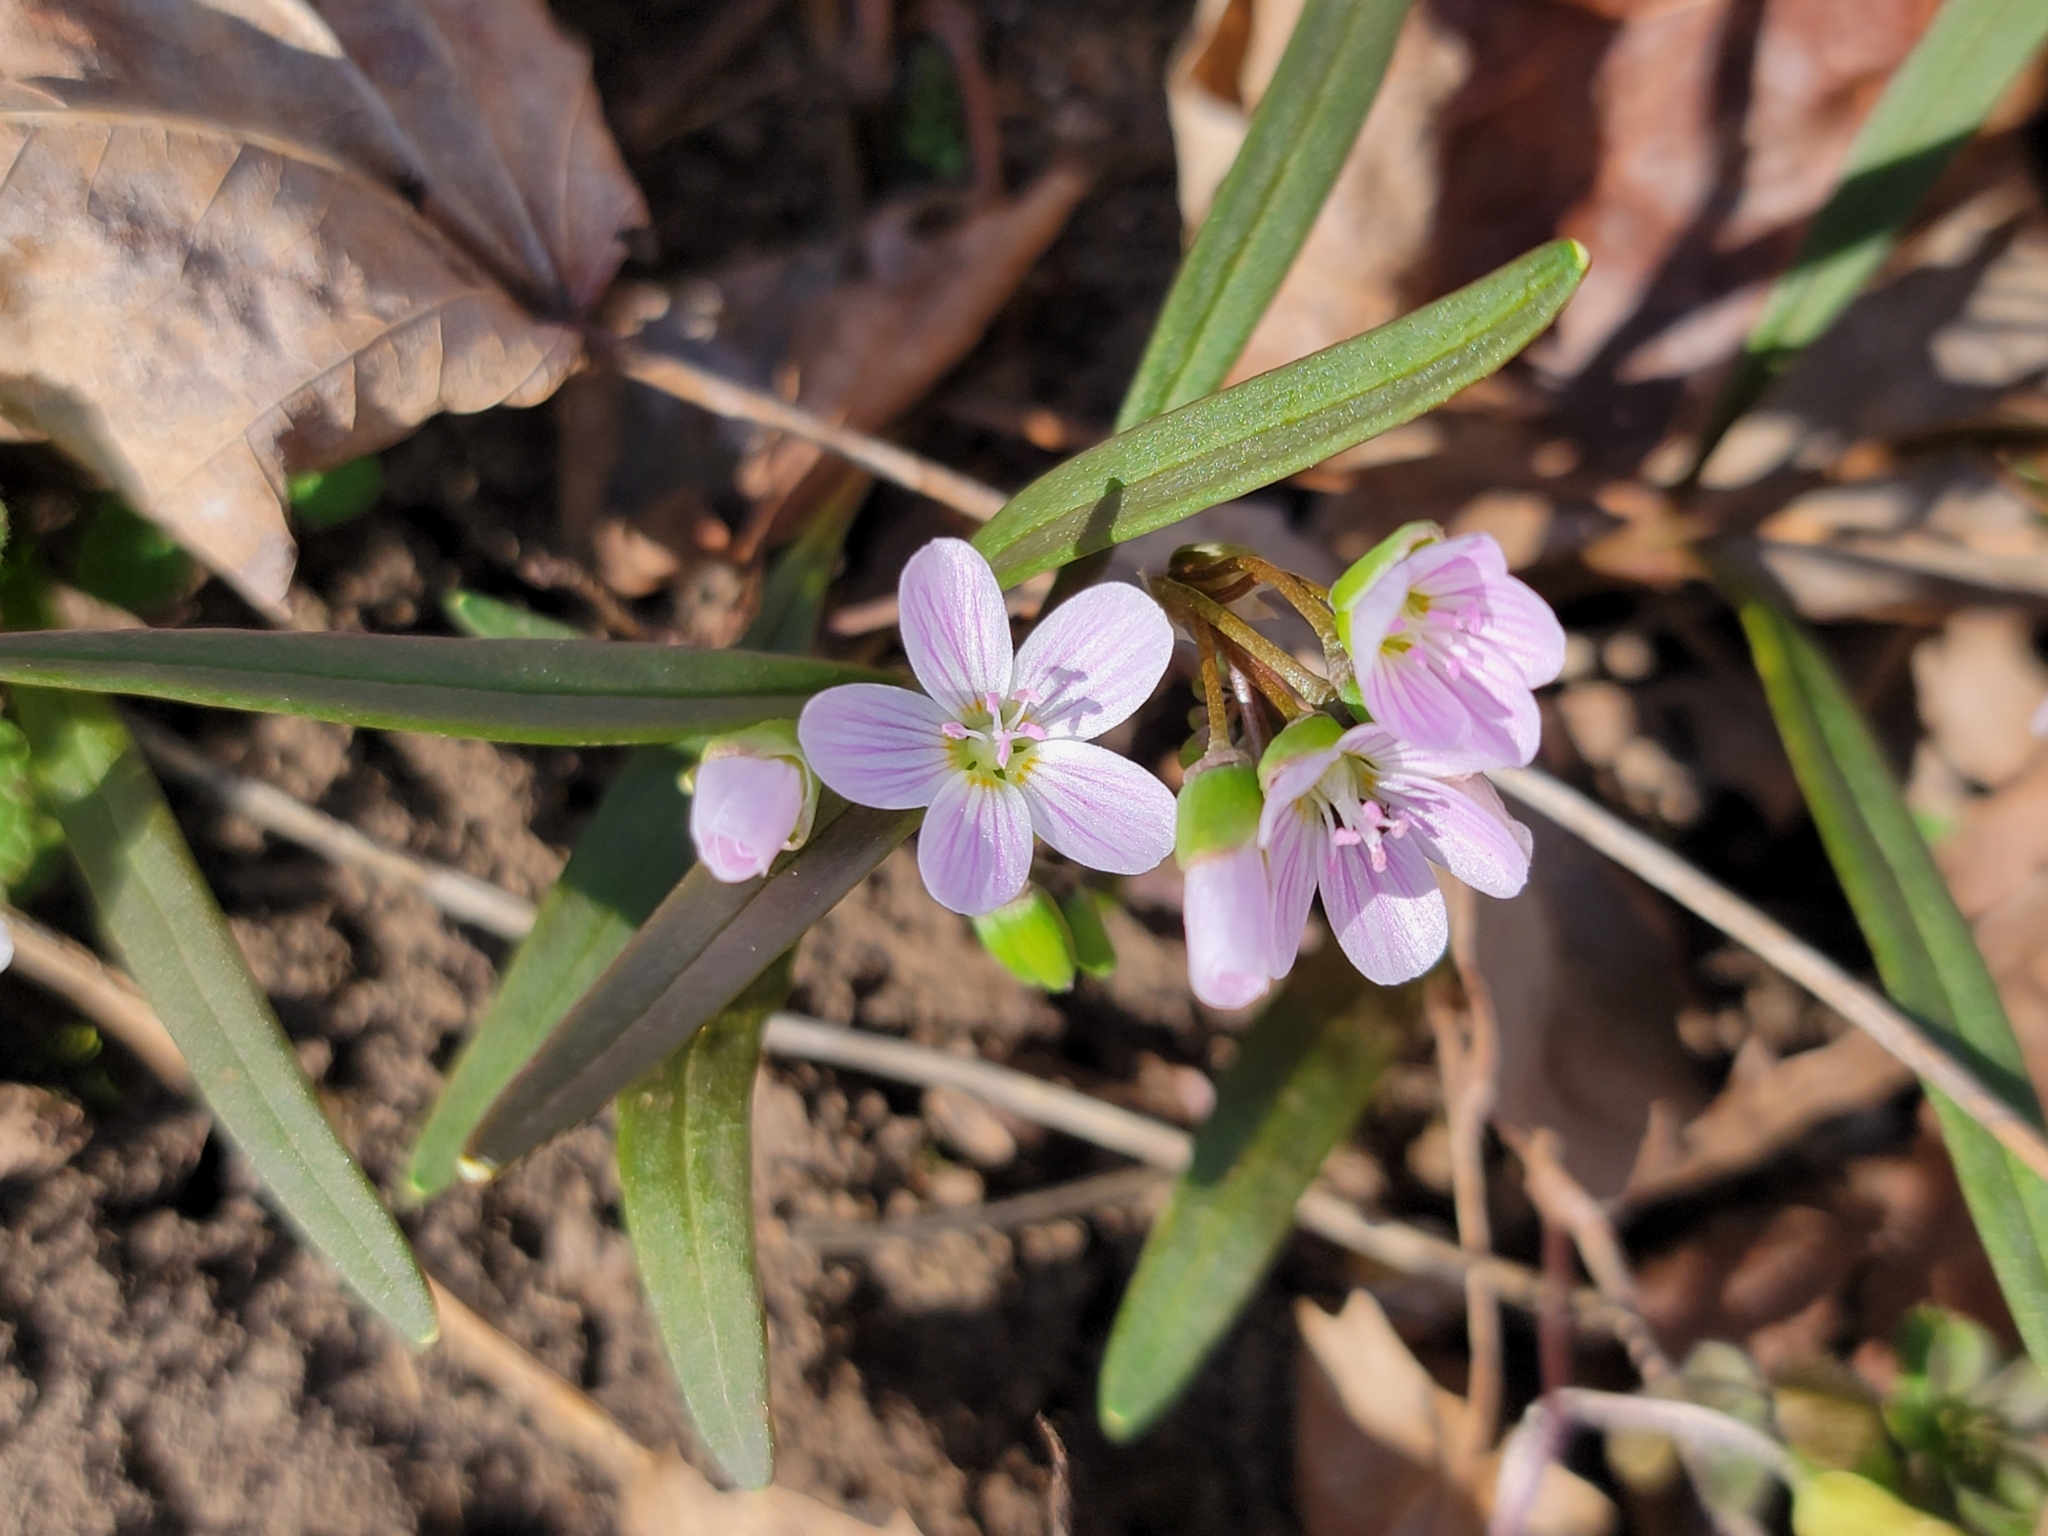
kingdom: Plantae
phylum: Tracheophyta
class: Magnoliopsida
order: Caryophyllales
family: Montiaceae
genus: Claytonia
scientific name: Claytonia virginica
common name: Virginia springbeauty
